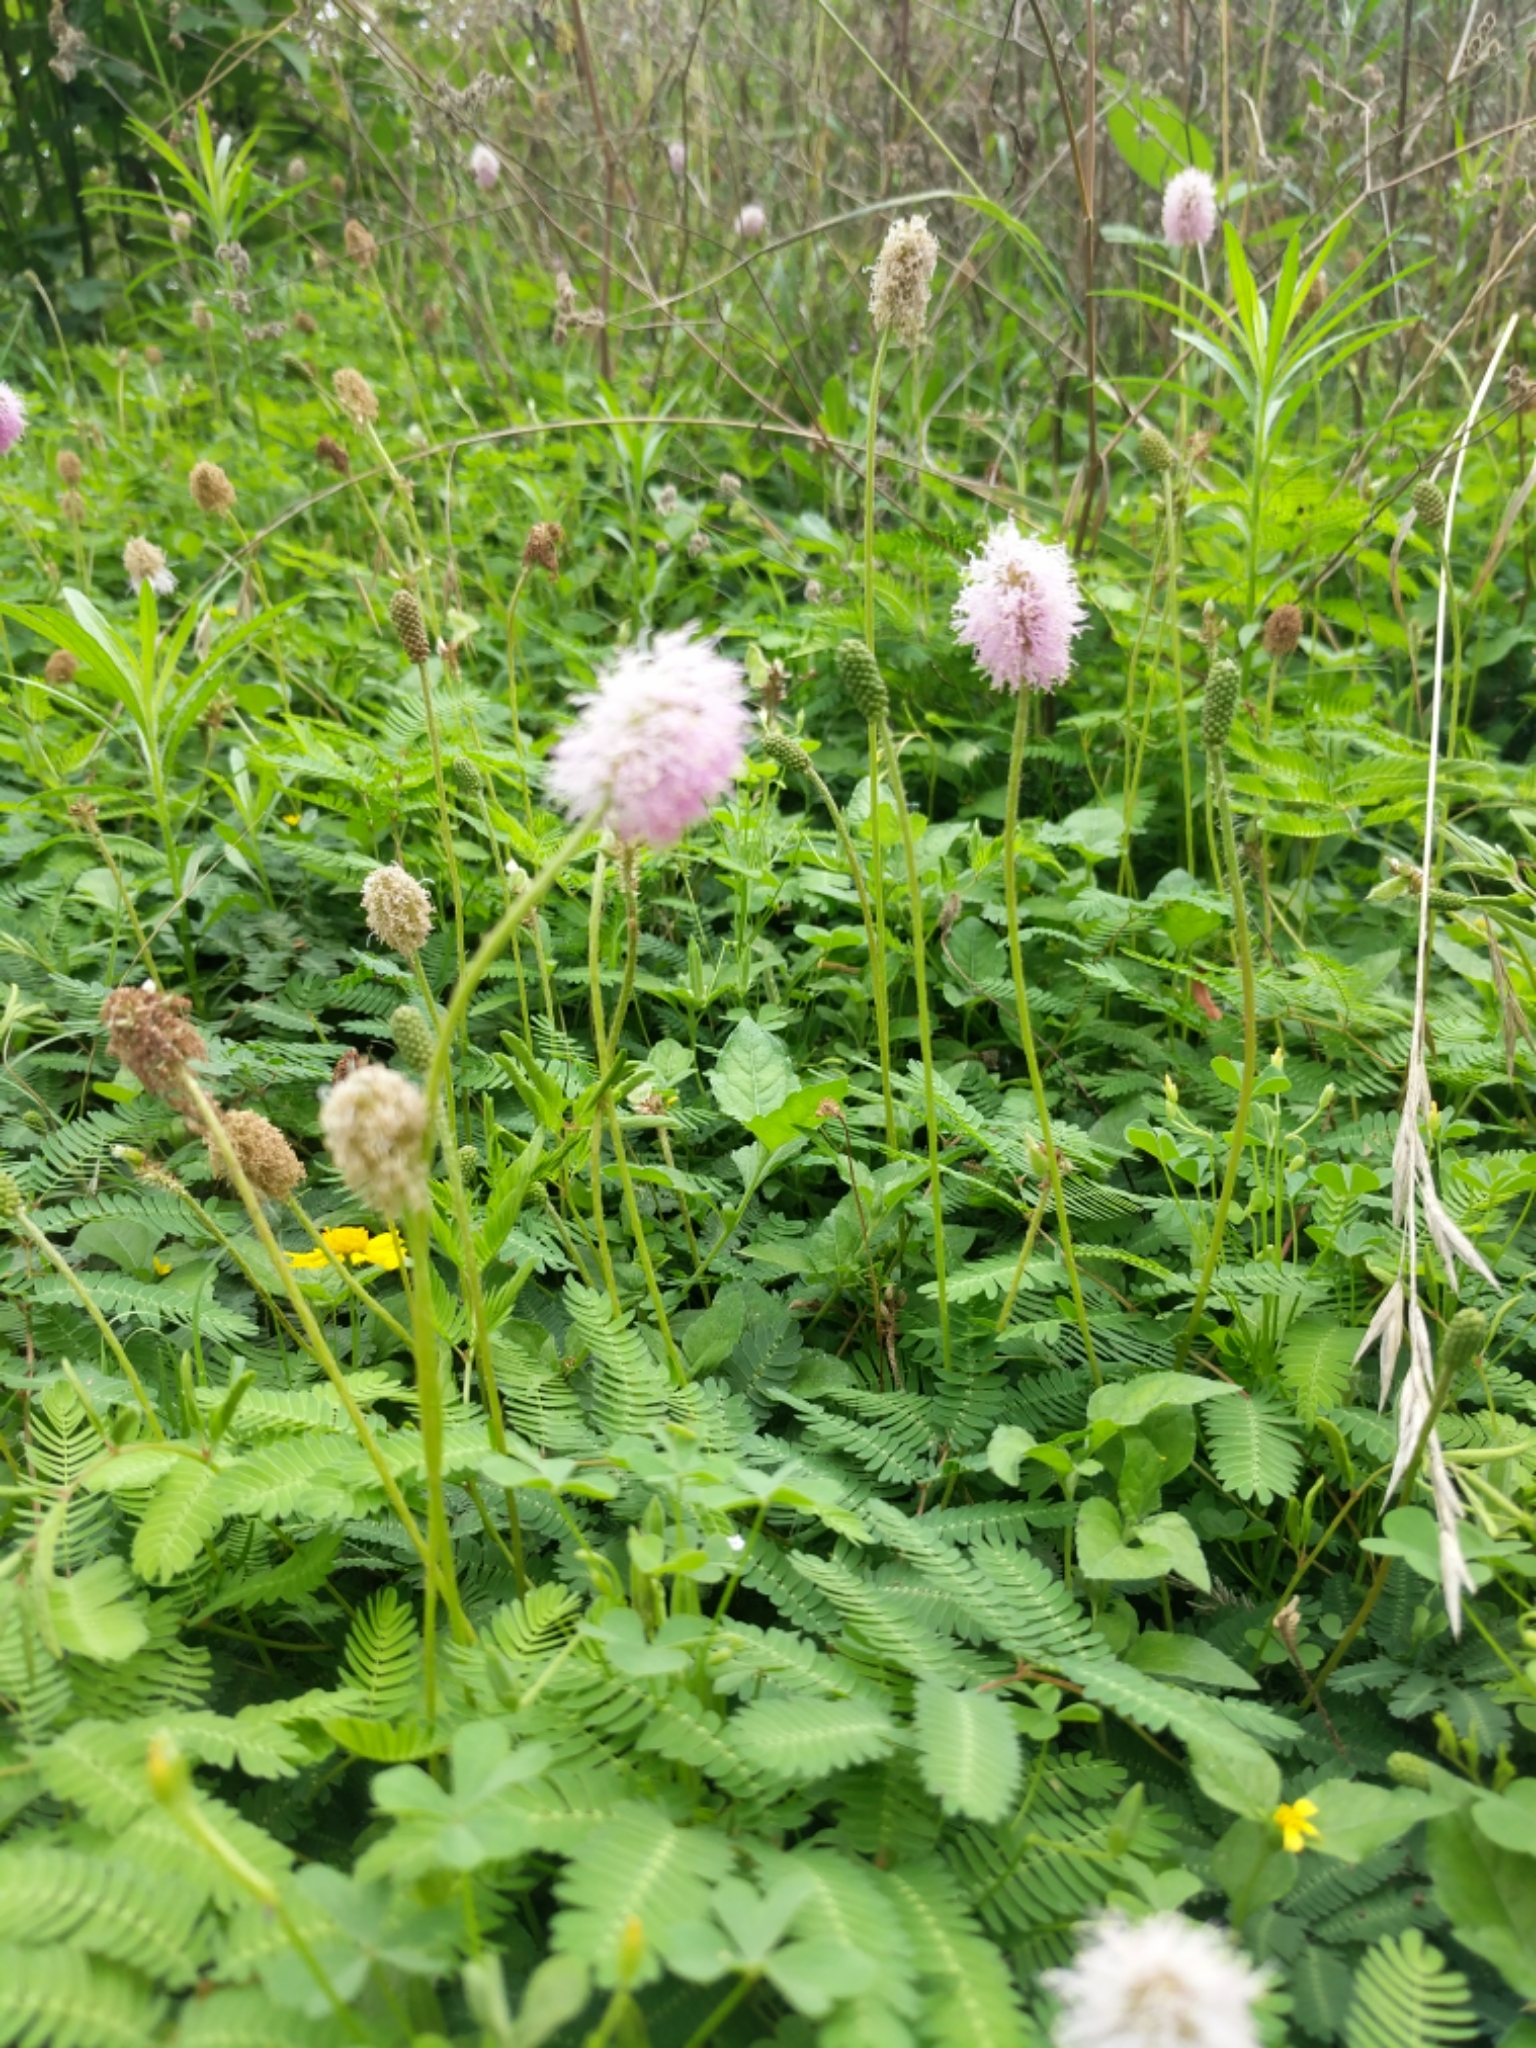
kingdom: Plantae
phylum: Tracheophyta
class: Magnoliopsida
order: Fabales
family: Fabaceae
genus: Mimosa
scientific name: Mimosa strigillosa
